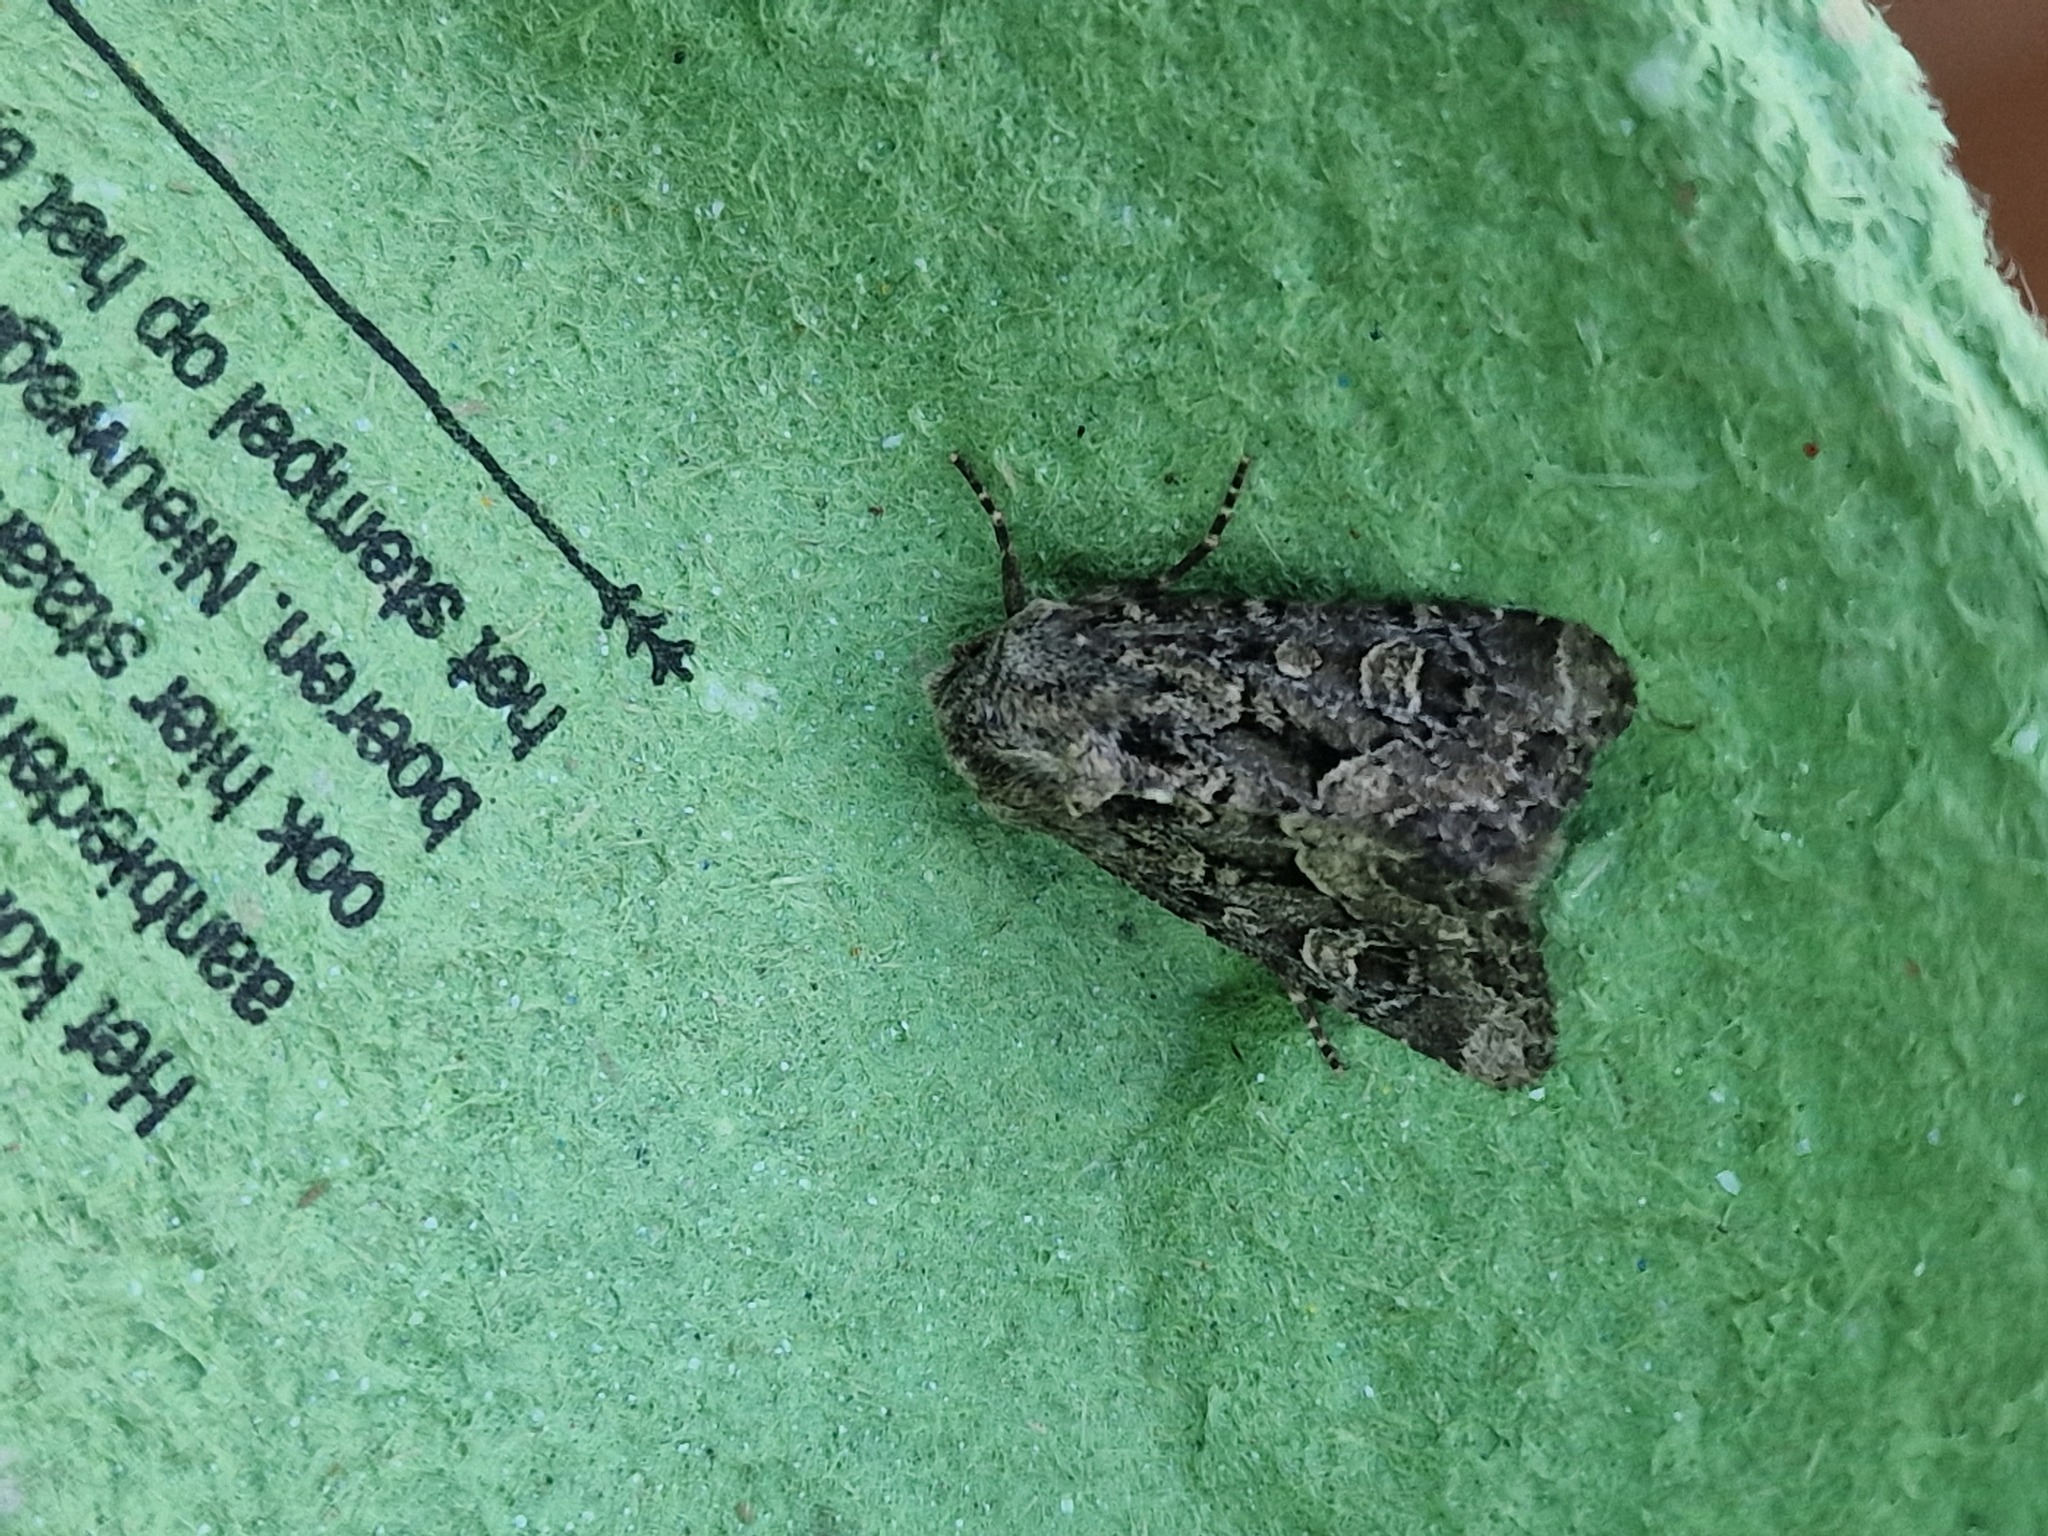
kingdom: Animalia
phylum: Arthropoda
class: Insecta
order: Lepidoptera
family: Noctuidae
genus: Luperina
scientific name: Luperina testacea
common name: Flounced rustic
